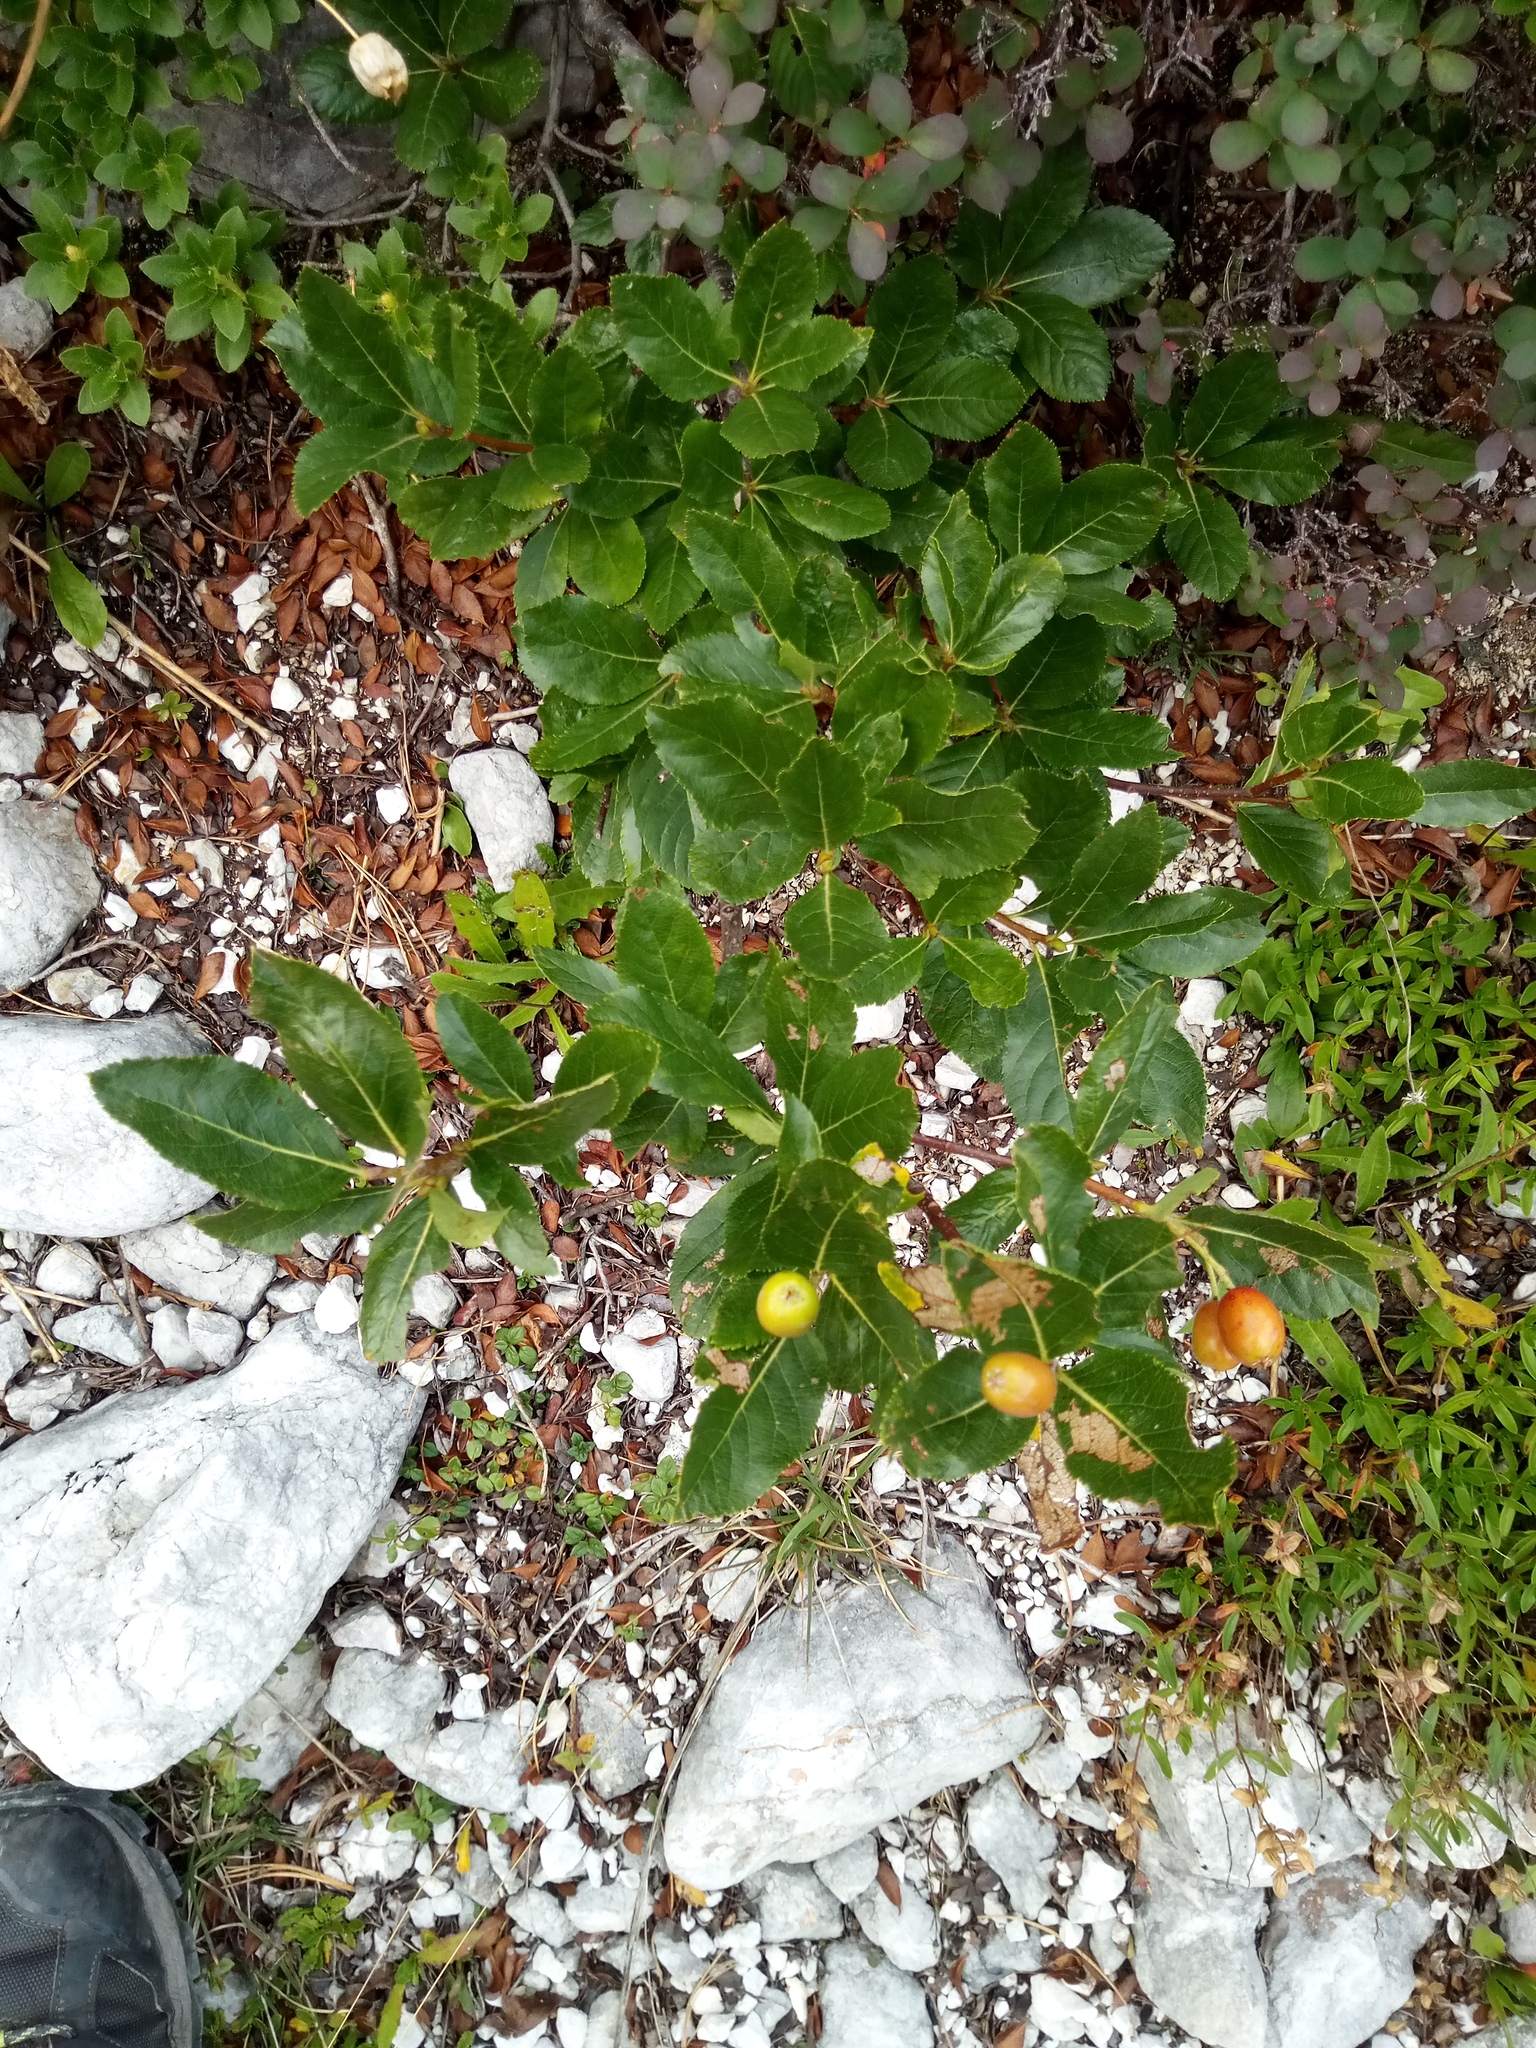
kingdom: Plantae
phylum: Tracheophyta
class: Magnoliopsida
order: Rosales
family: Rosaceae
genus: Chamaemespilus
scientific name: Chamaemespilus alpina
